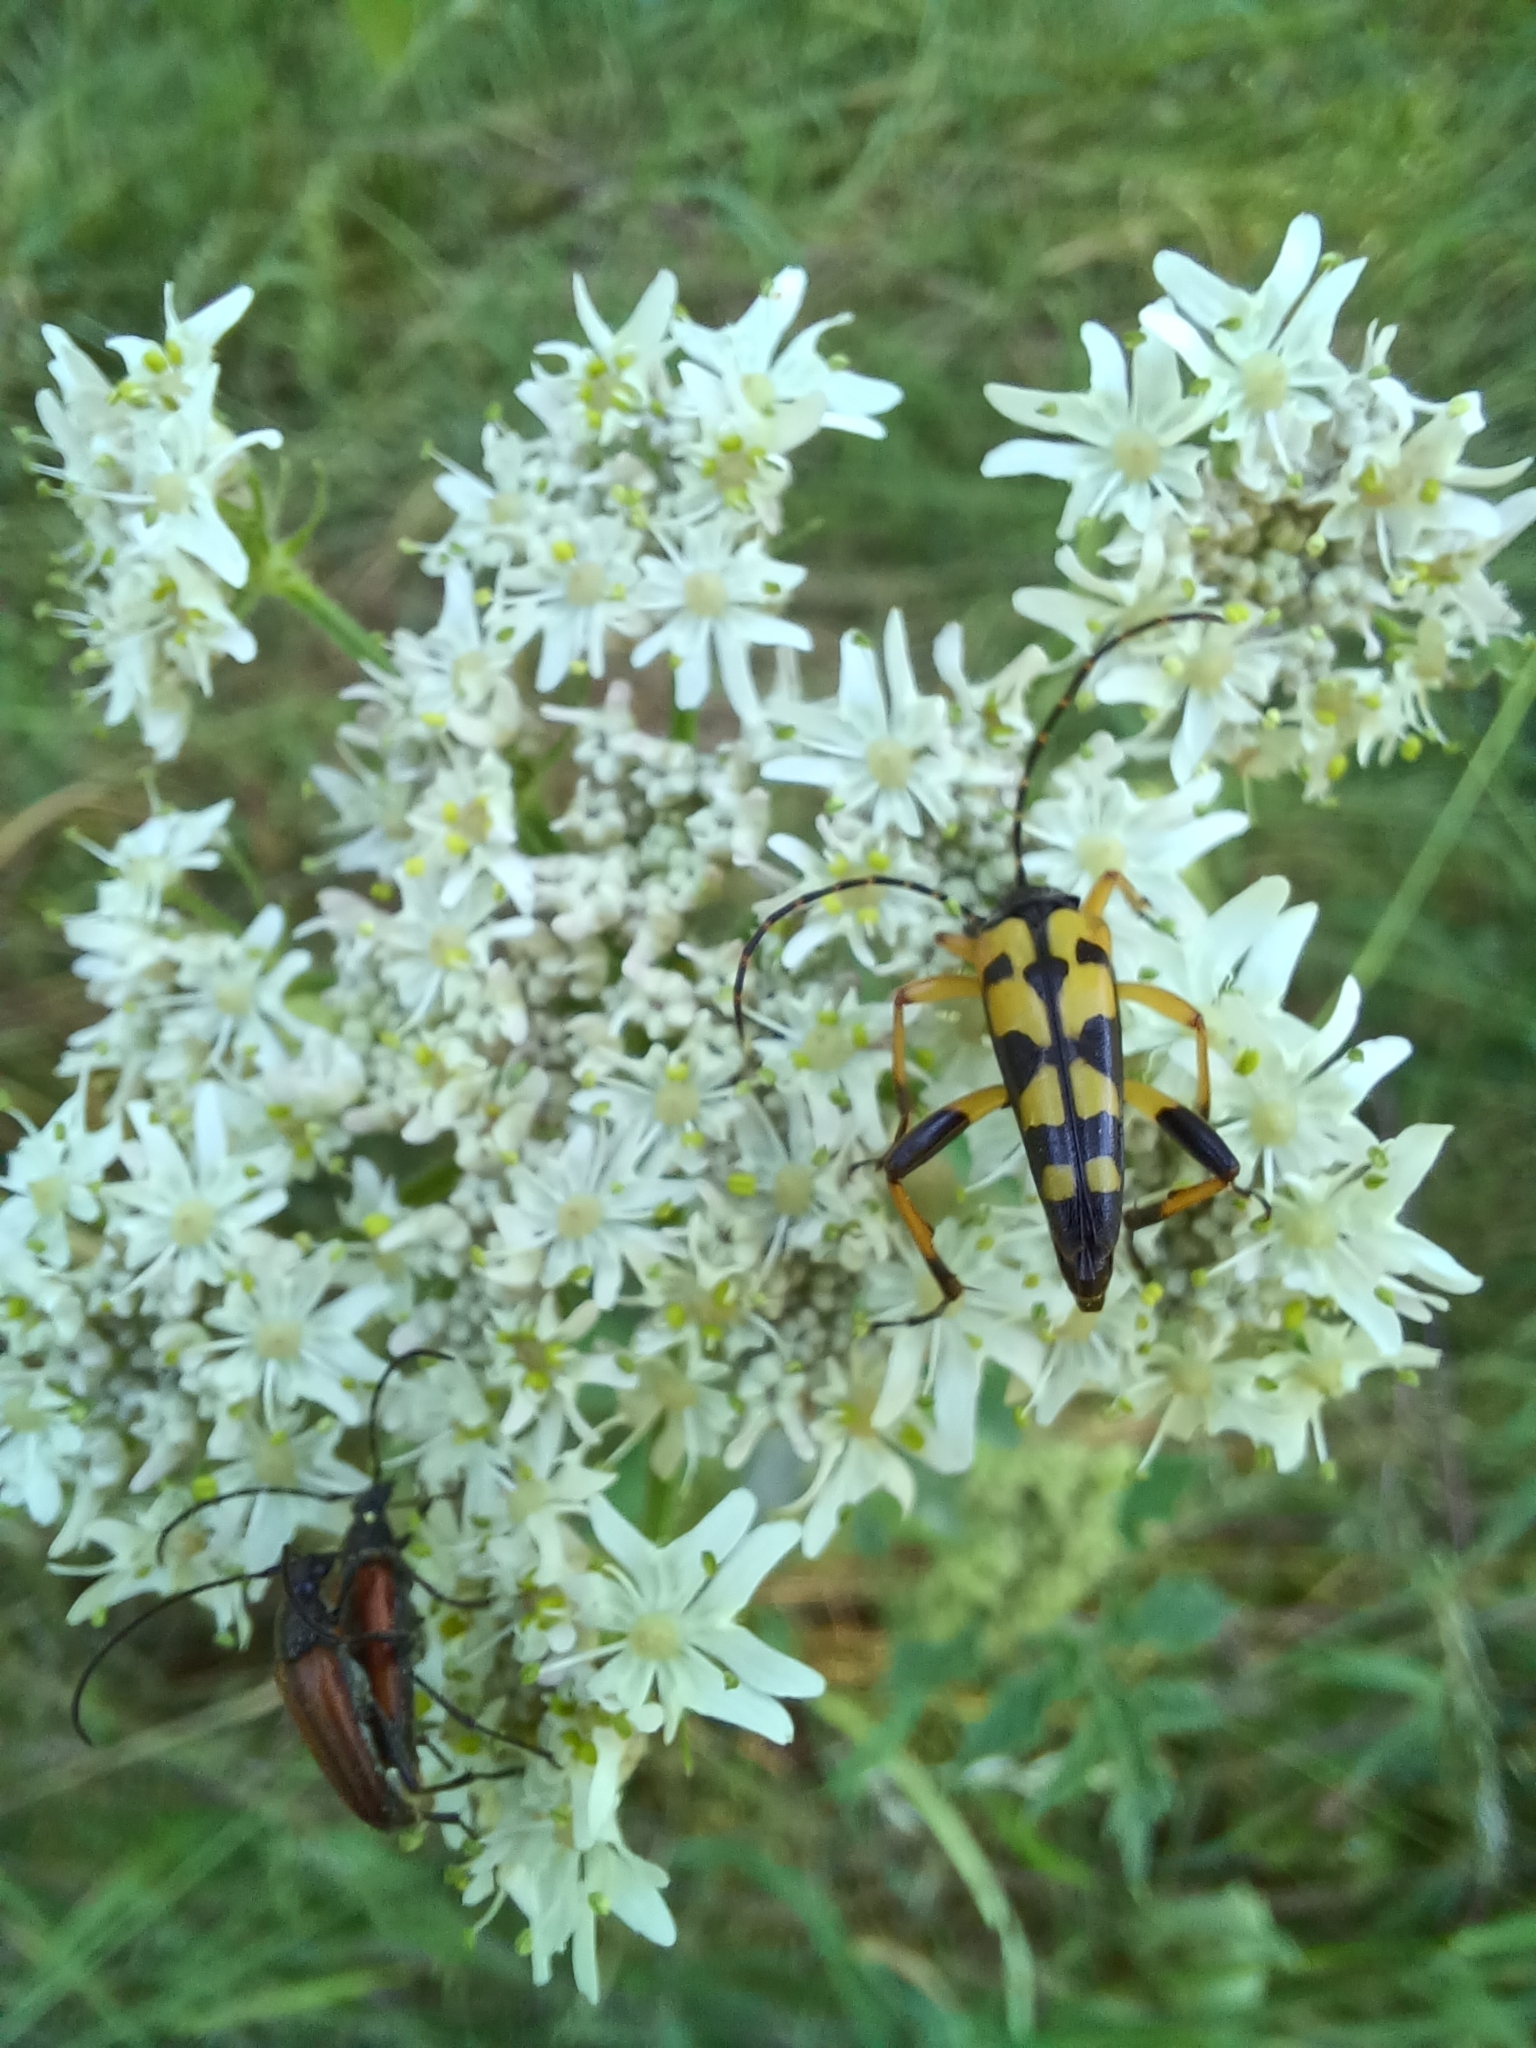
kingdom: Animalia
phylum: Arthropoda
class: Insecta
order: Coleoptera
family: Cerambycidae
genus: Rutpela
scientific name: Rutpela maculata
